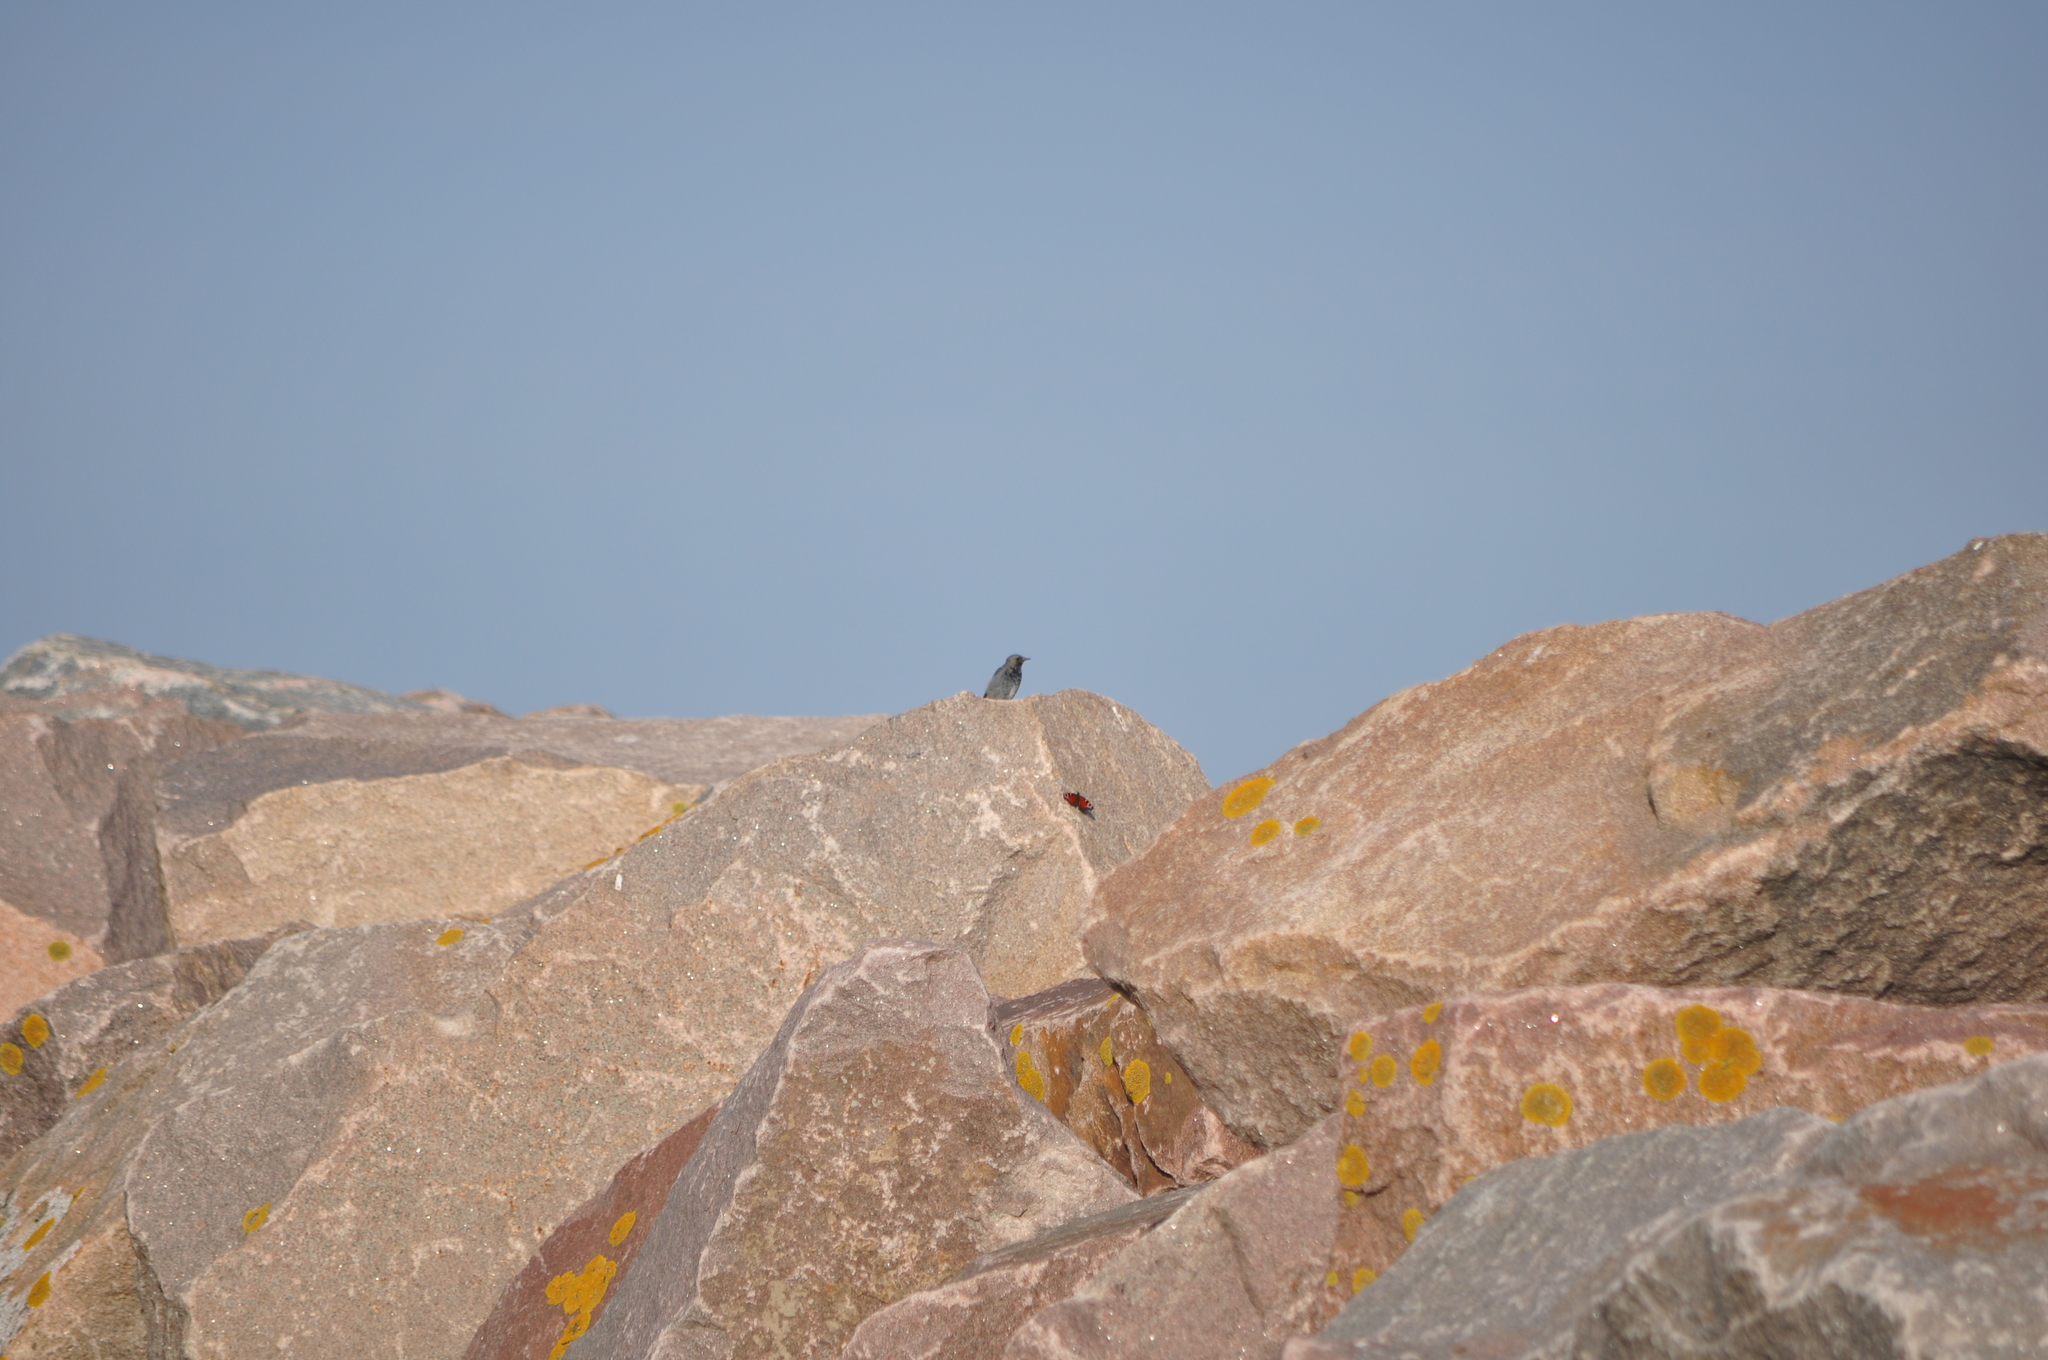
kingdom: Animalia
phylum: Chordata
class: Aves
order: Passeriformes
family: Muscicapidae
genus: Phoenicurus
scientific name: Phoenicurus ochruros
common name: Black redstart
